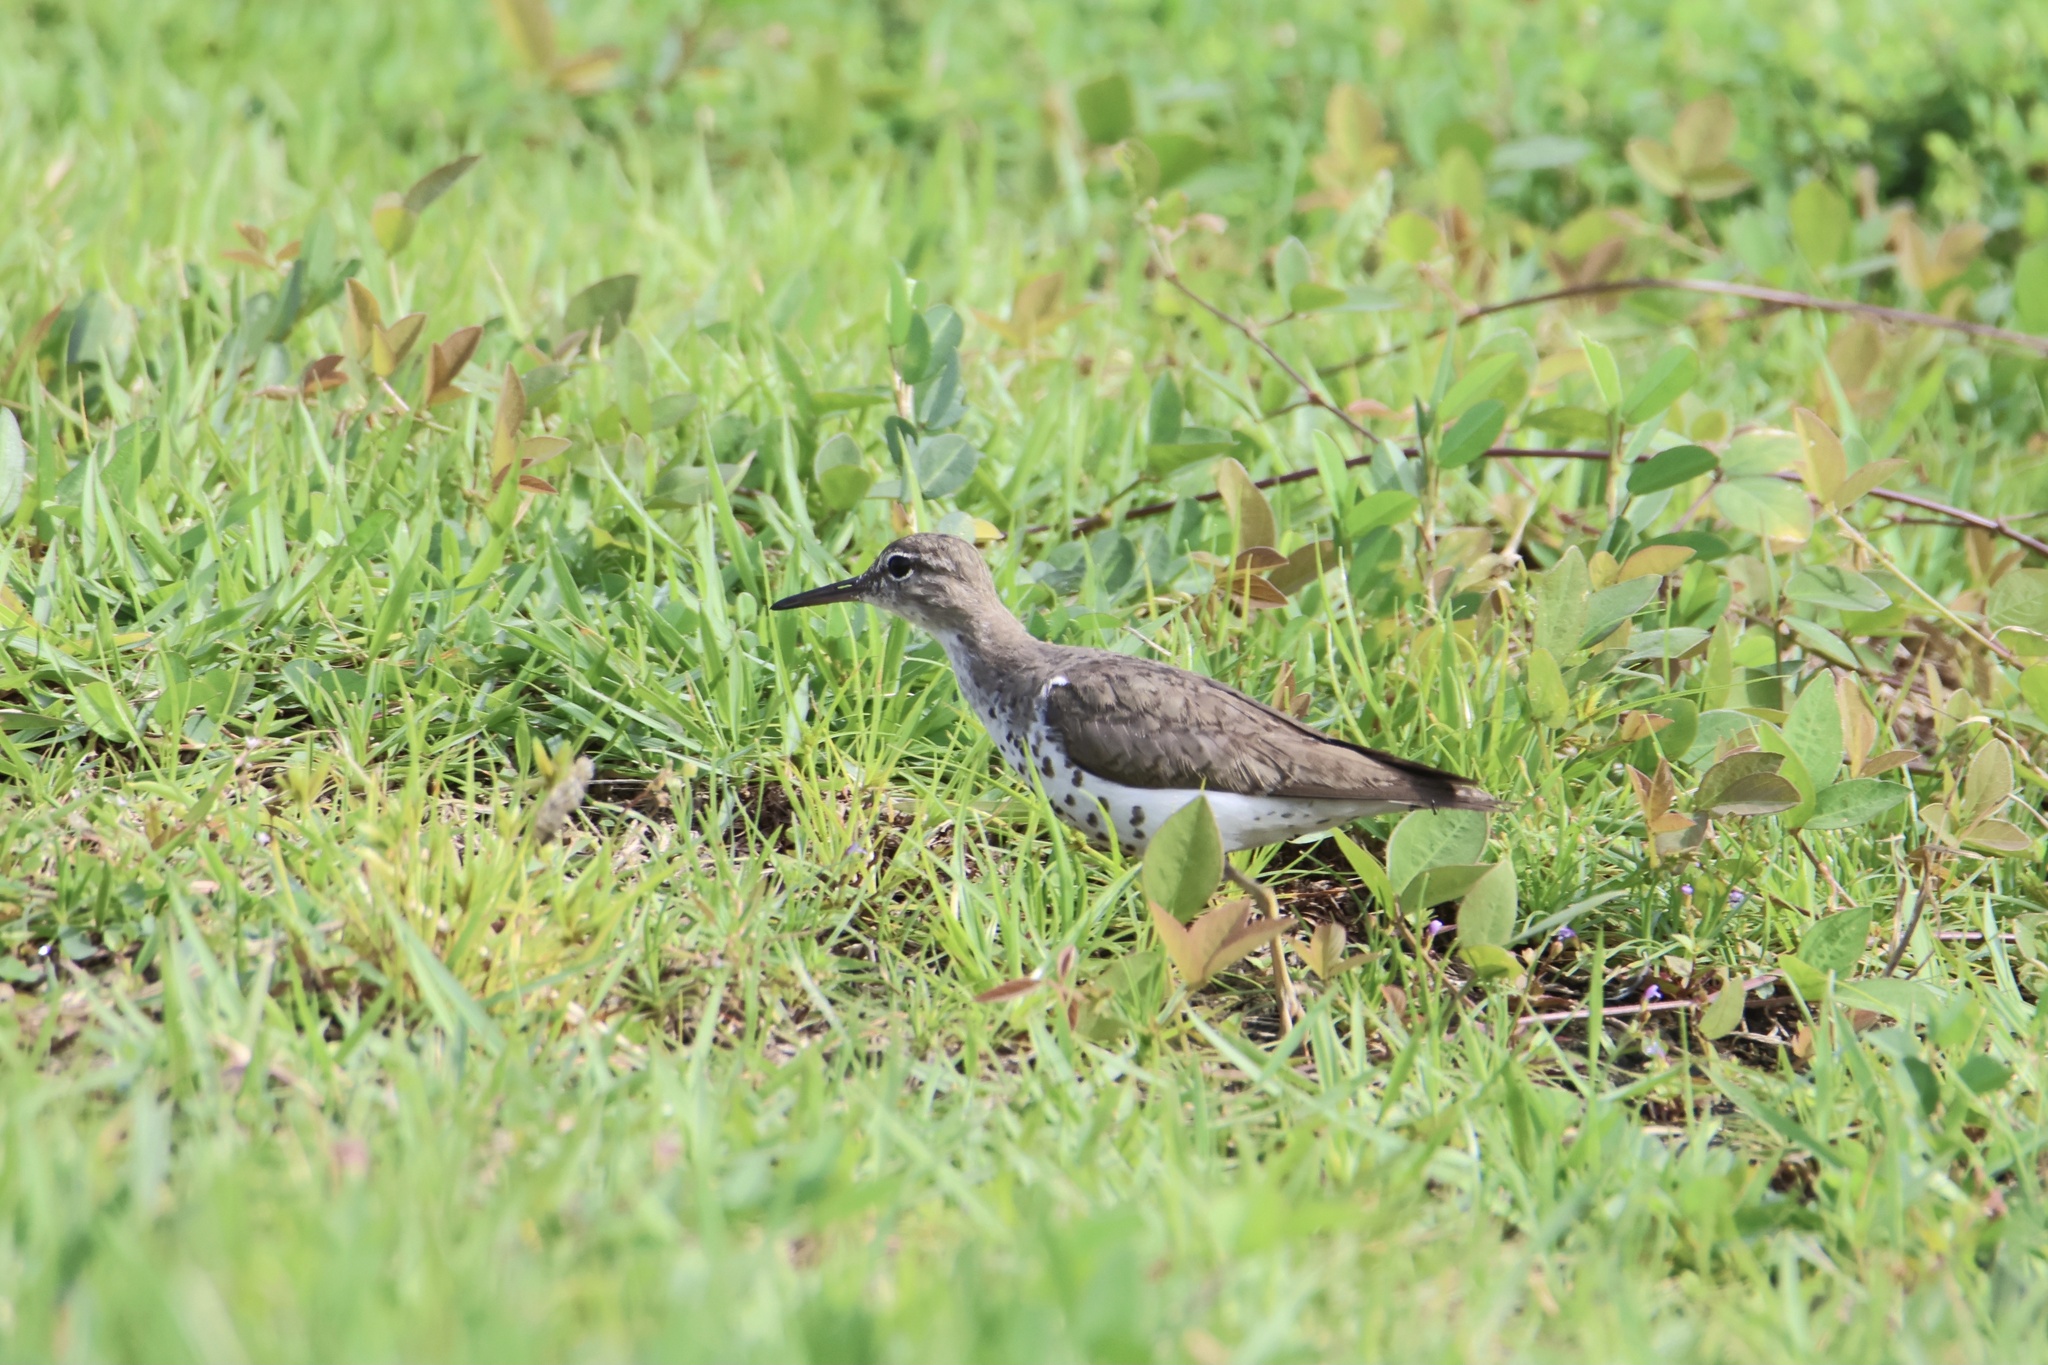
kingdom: Animalia
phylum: Chordata
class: Aves
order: Charadriiformes
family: Scolopacidae
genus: Actitis
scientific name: Actitis macularius
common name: Spotted sandpiper
